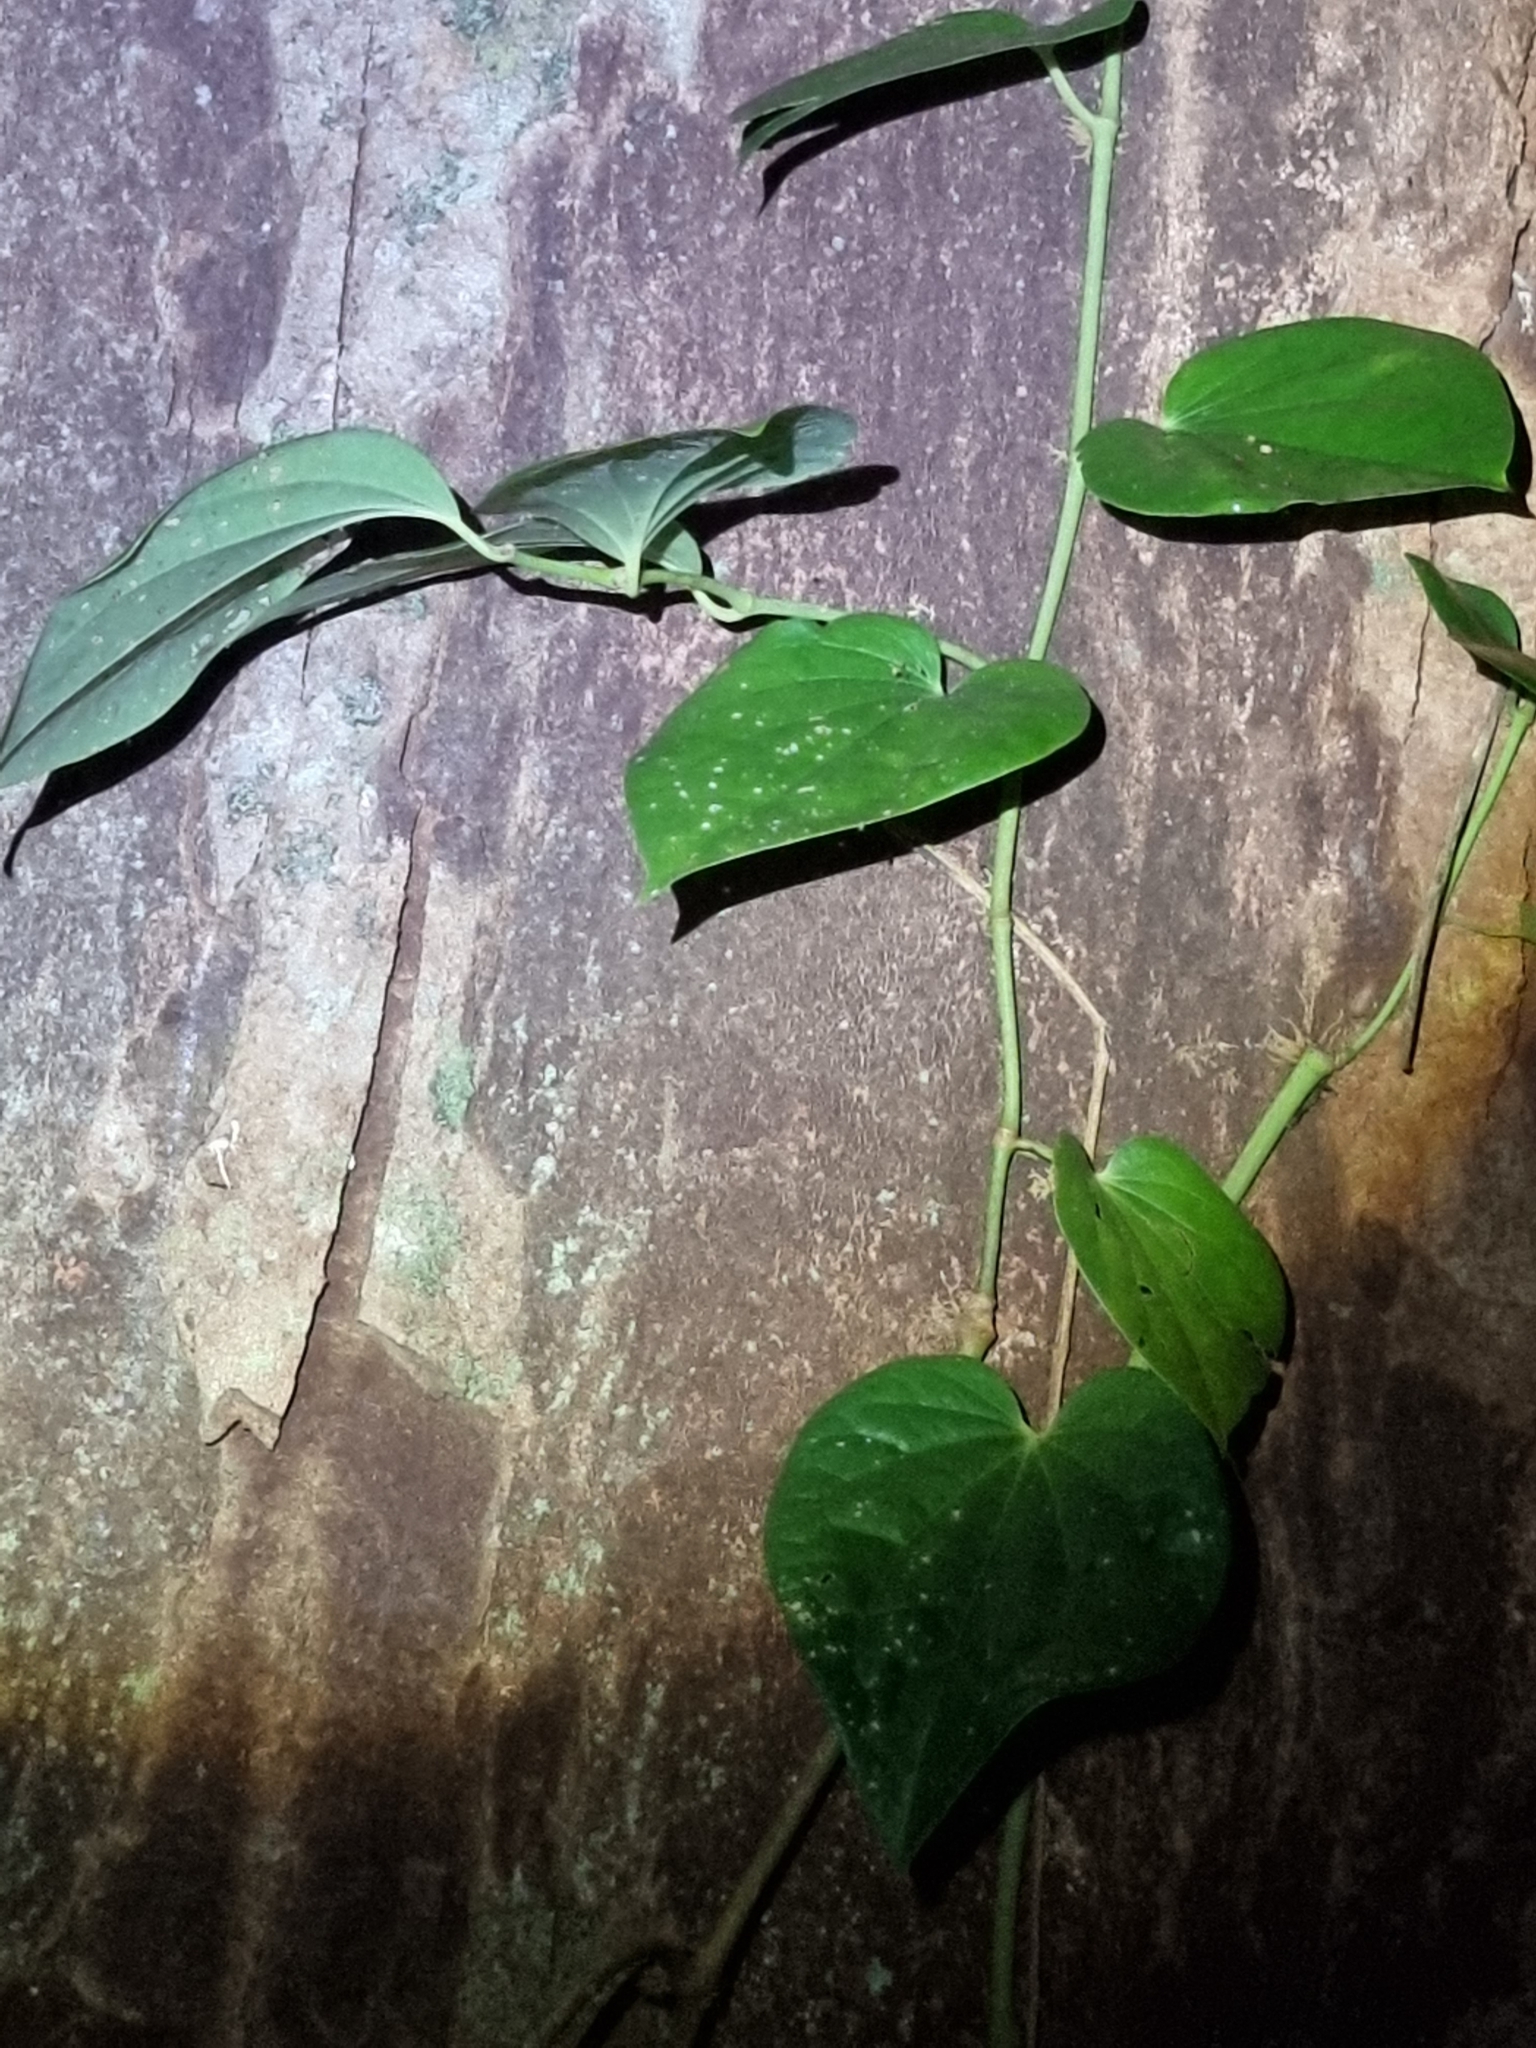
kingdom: Plantae
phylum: Tracheophyta
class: Magnoliopsida
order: Piperales
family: Piperaceae
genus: Piper
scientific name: Piper hederaceum
